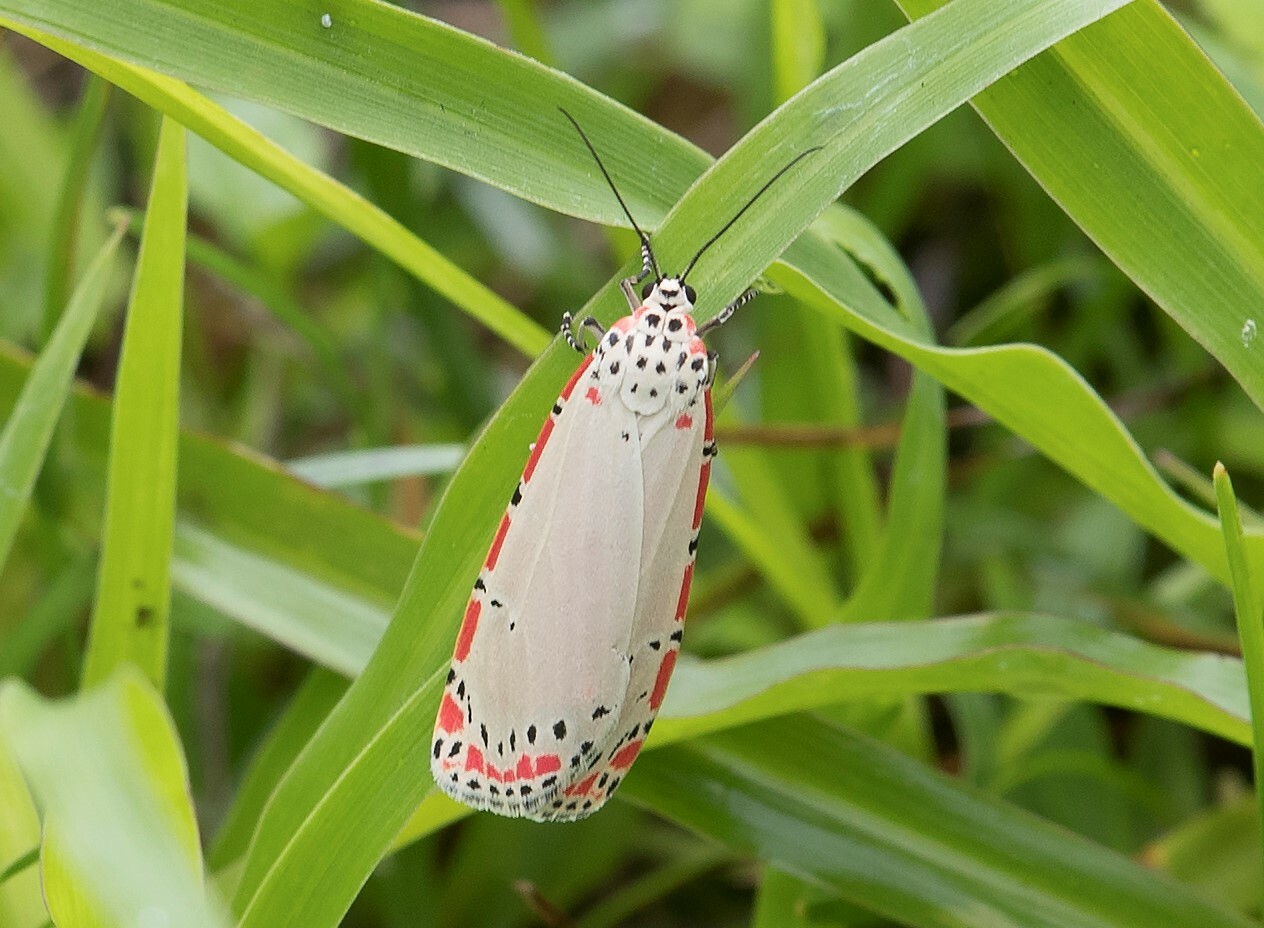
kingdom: Animalia
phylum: Arthropoda
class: Insecta
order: Lepidoptera
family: Erebidae
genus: Utetheisa
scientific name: Utetheisa ornatrix
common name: Beautiful utetheisa
